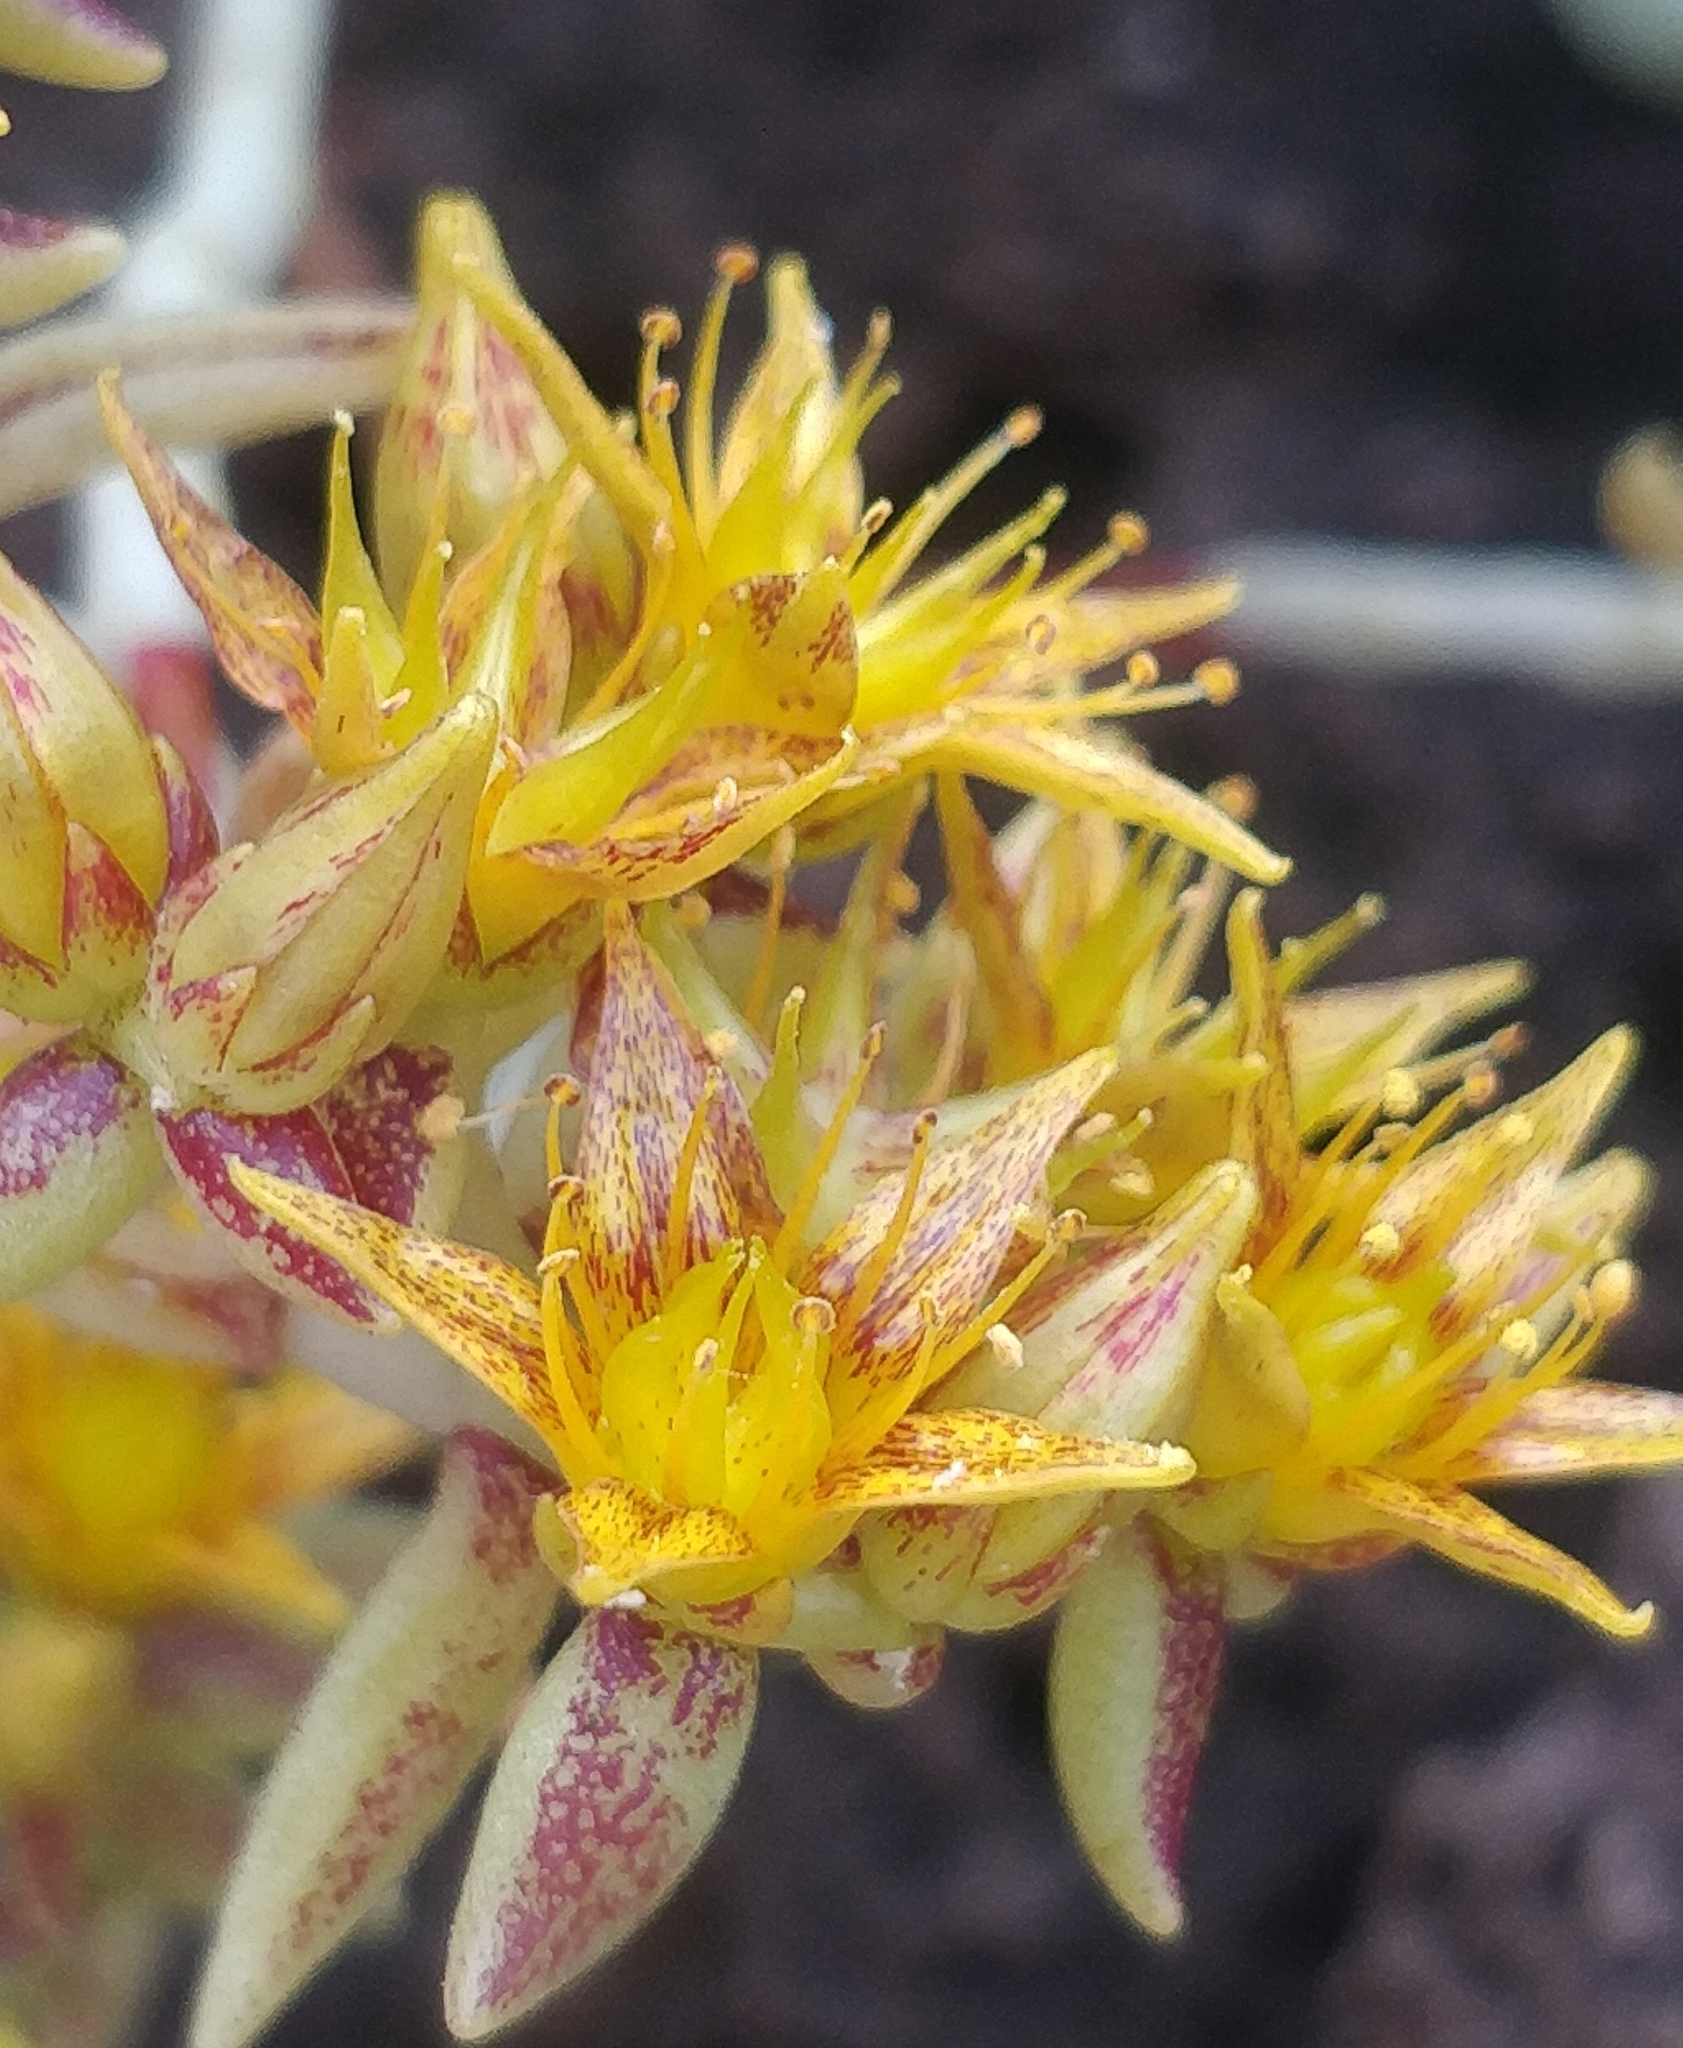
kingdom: Plantae
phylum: Tracheophyta
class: Magnoliopsida
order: Saxifragales
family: Crassulaceae
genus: Sedum
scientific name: Sedum fusiforme
